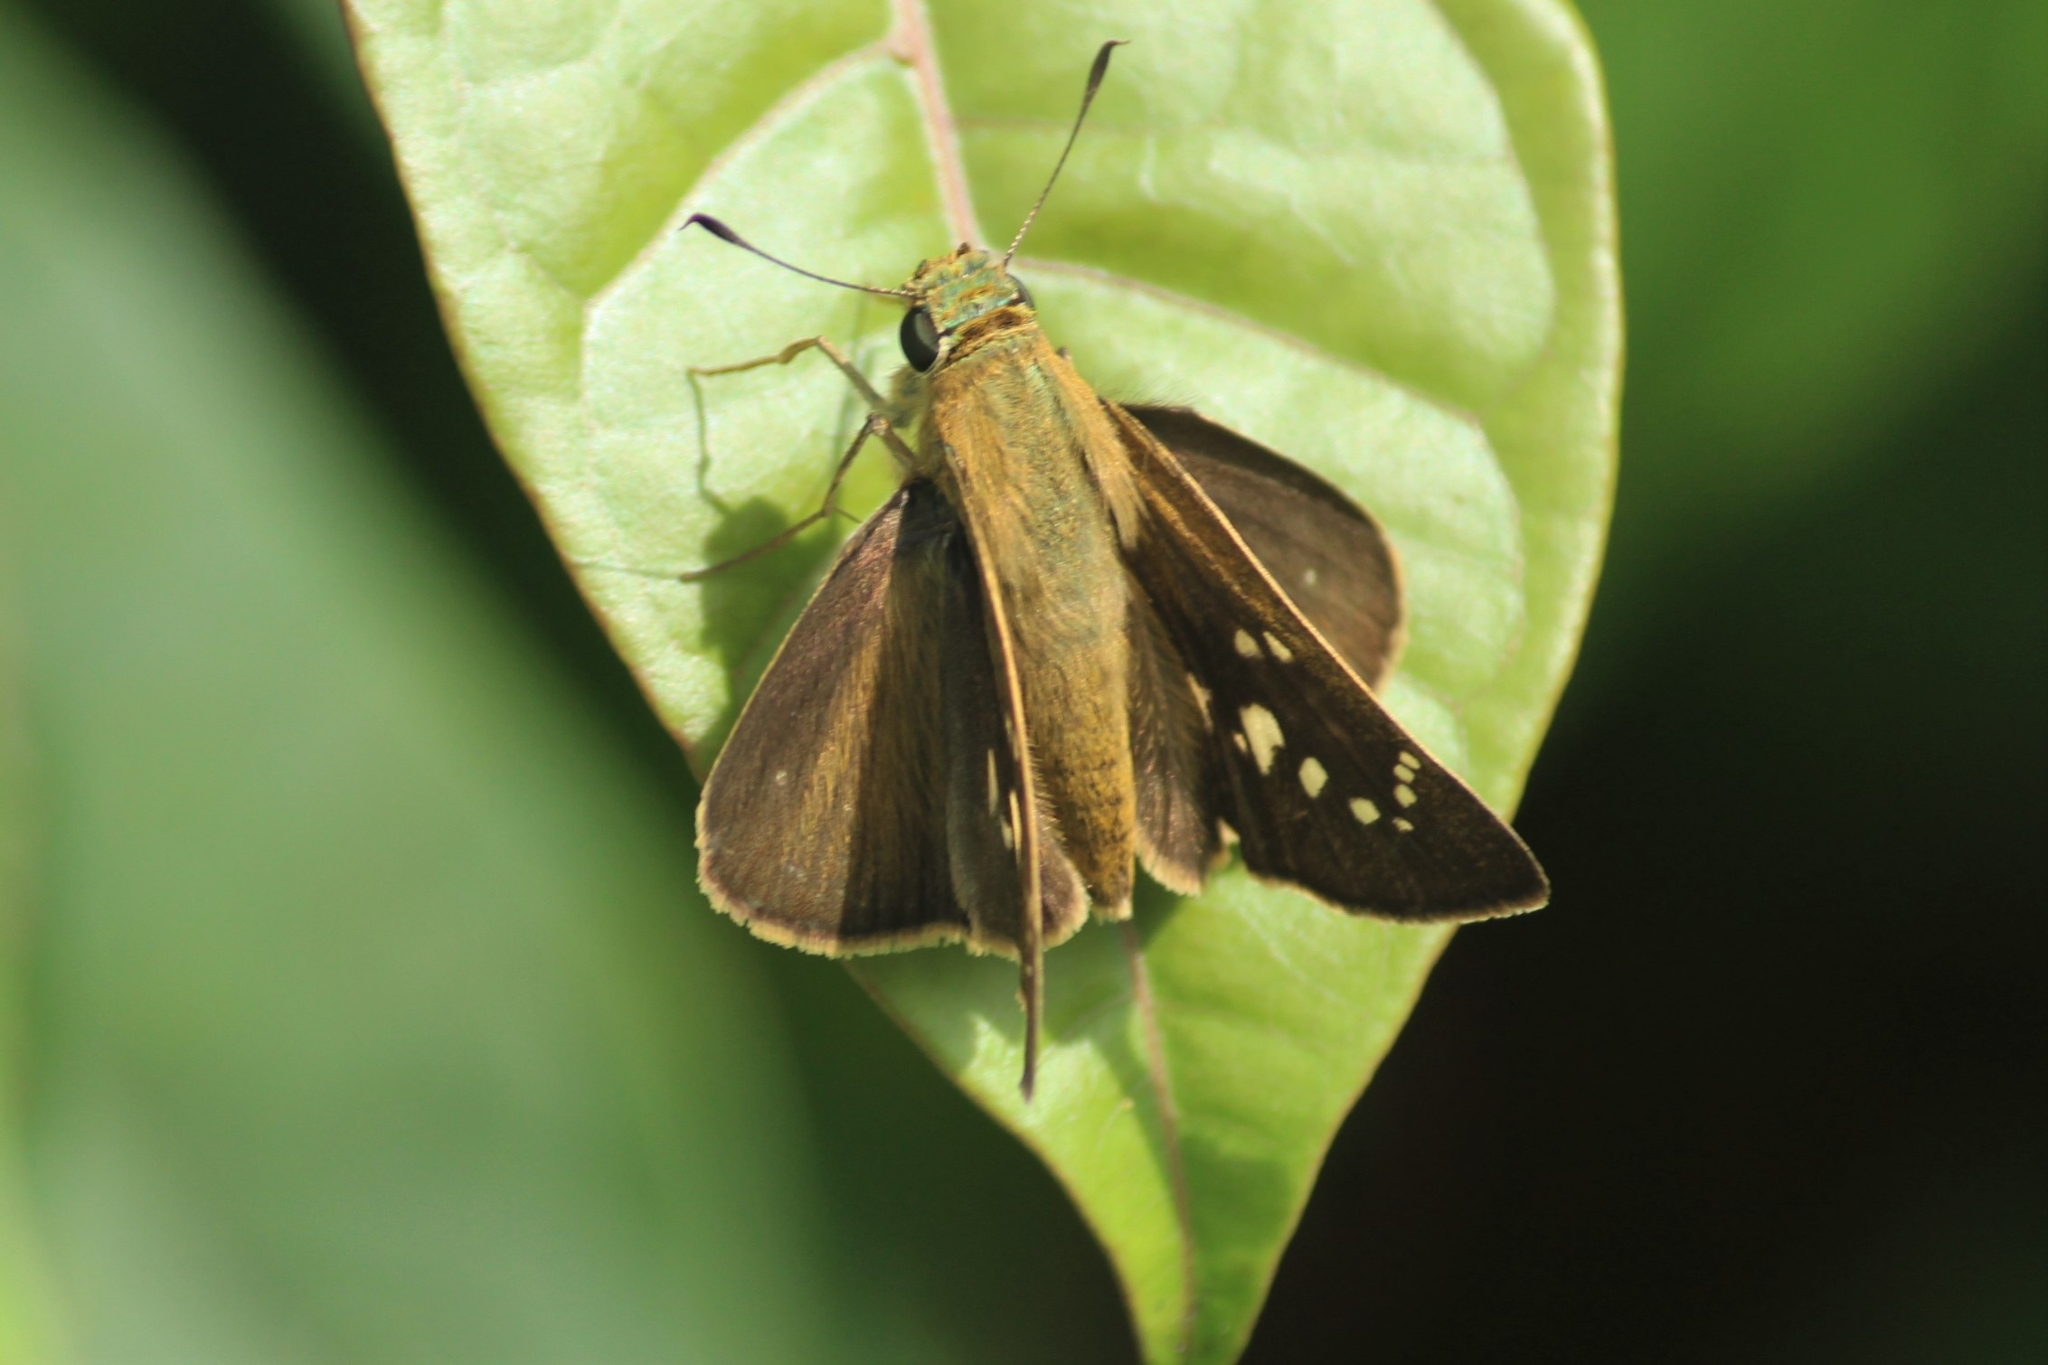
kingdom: Animalia
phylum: Arthropoda
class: Insecta
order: Lepidoptera
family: Hesperiidae
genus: Pelopidas
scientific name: Pelopidas conjuncta
